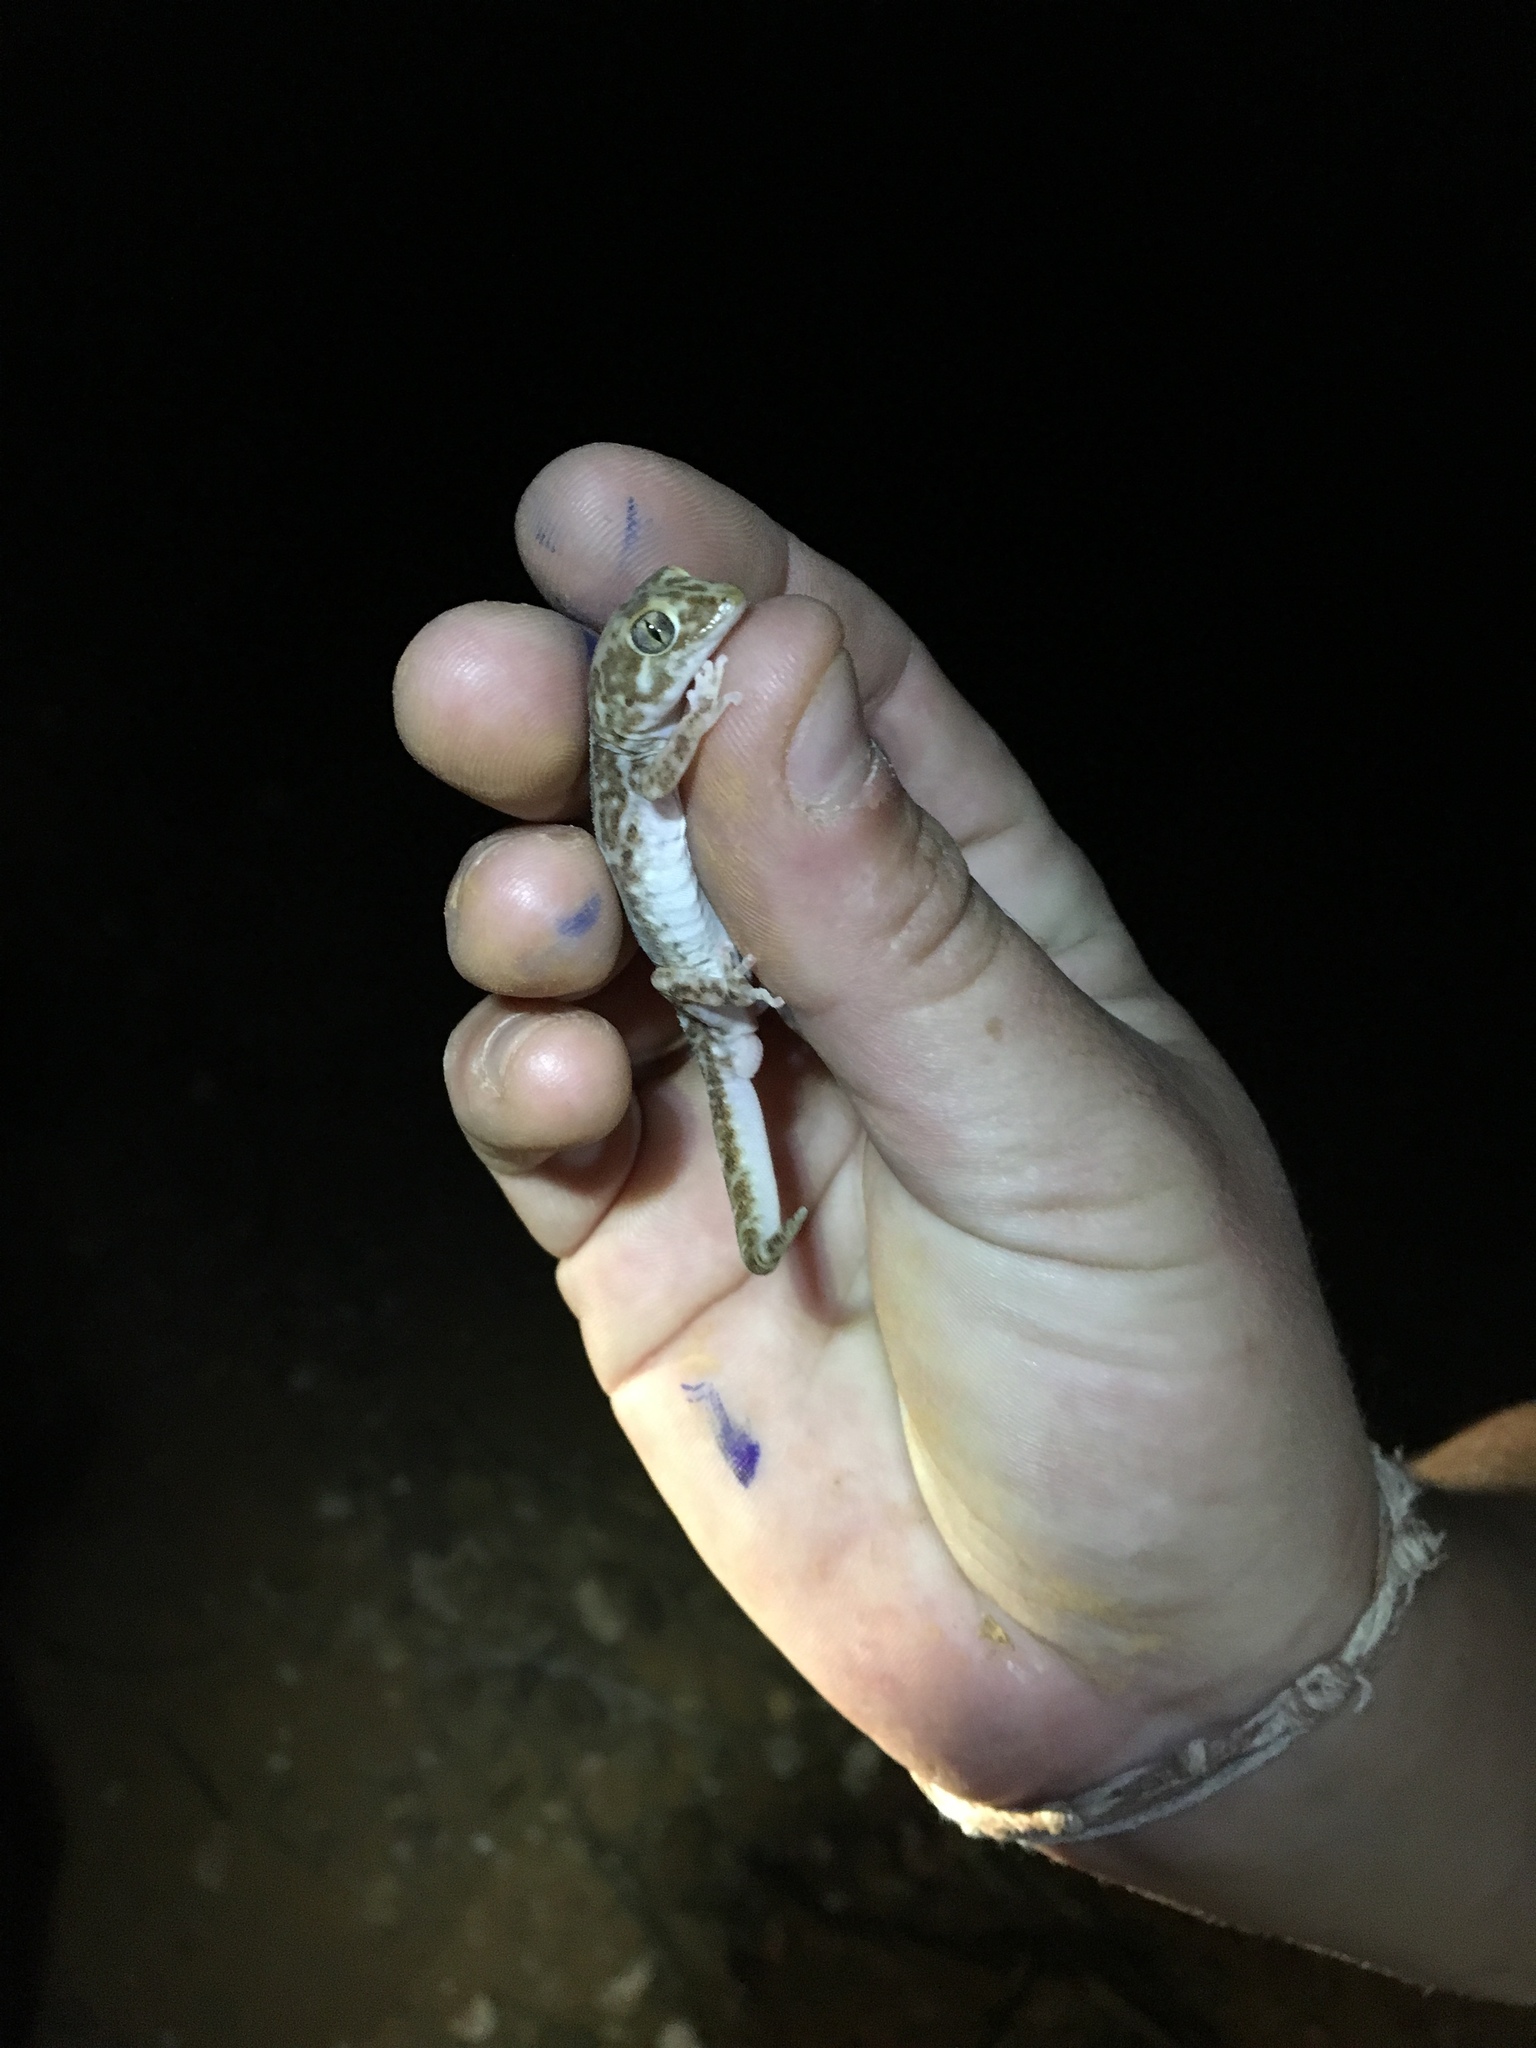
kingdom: Animalia
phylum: Chordata
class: Squamata
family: Diplodactylidae
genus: Lucasium
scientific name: Lucasium byrnei
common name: Byrne's gecko
